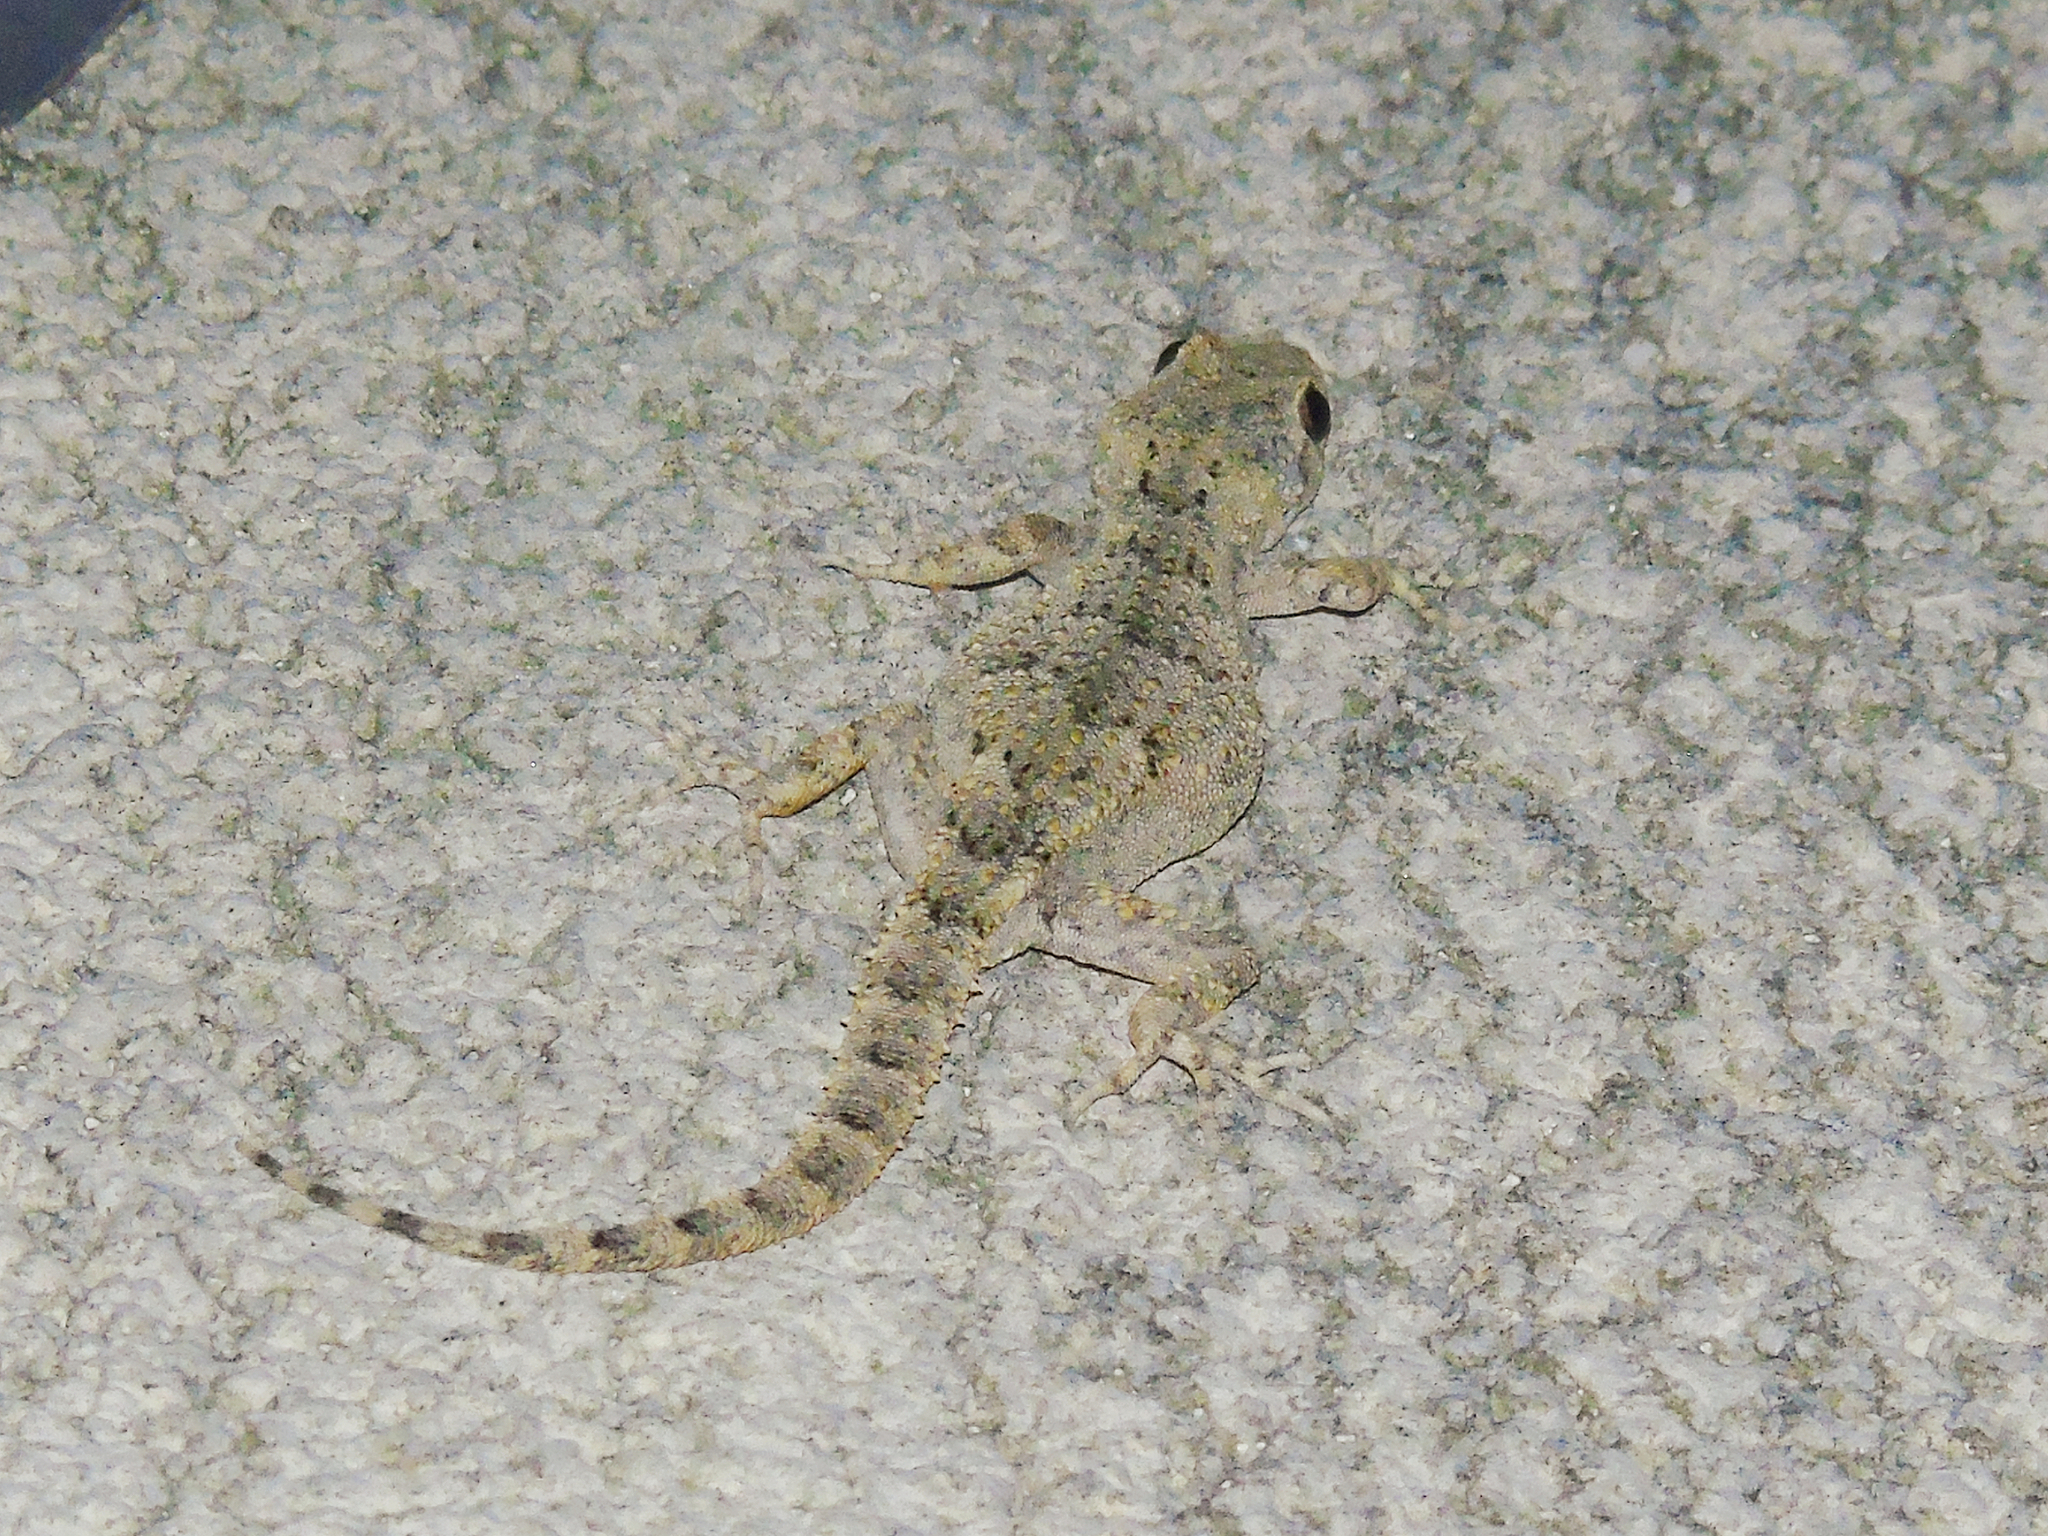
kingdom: Animalia
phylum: Chordata
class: Squamata
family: Gekkonidae
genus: Mediodactylus
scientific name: Mediodactylus danilewskii
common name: Bulgarian bent-toed gecko
